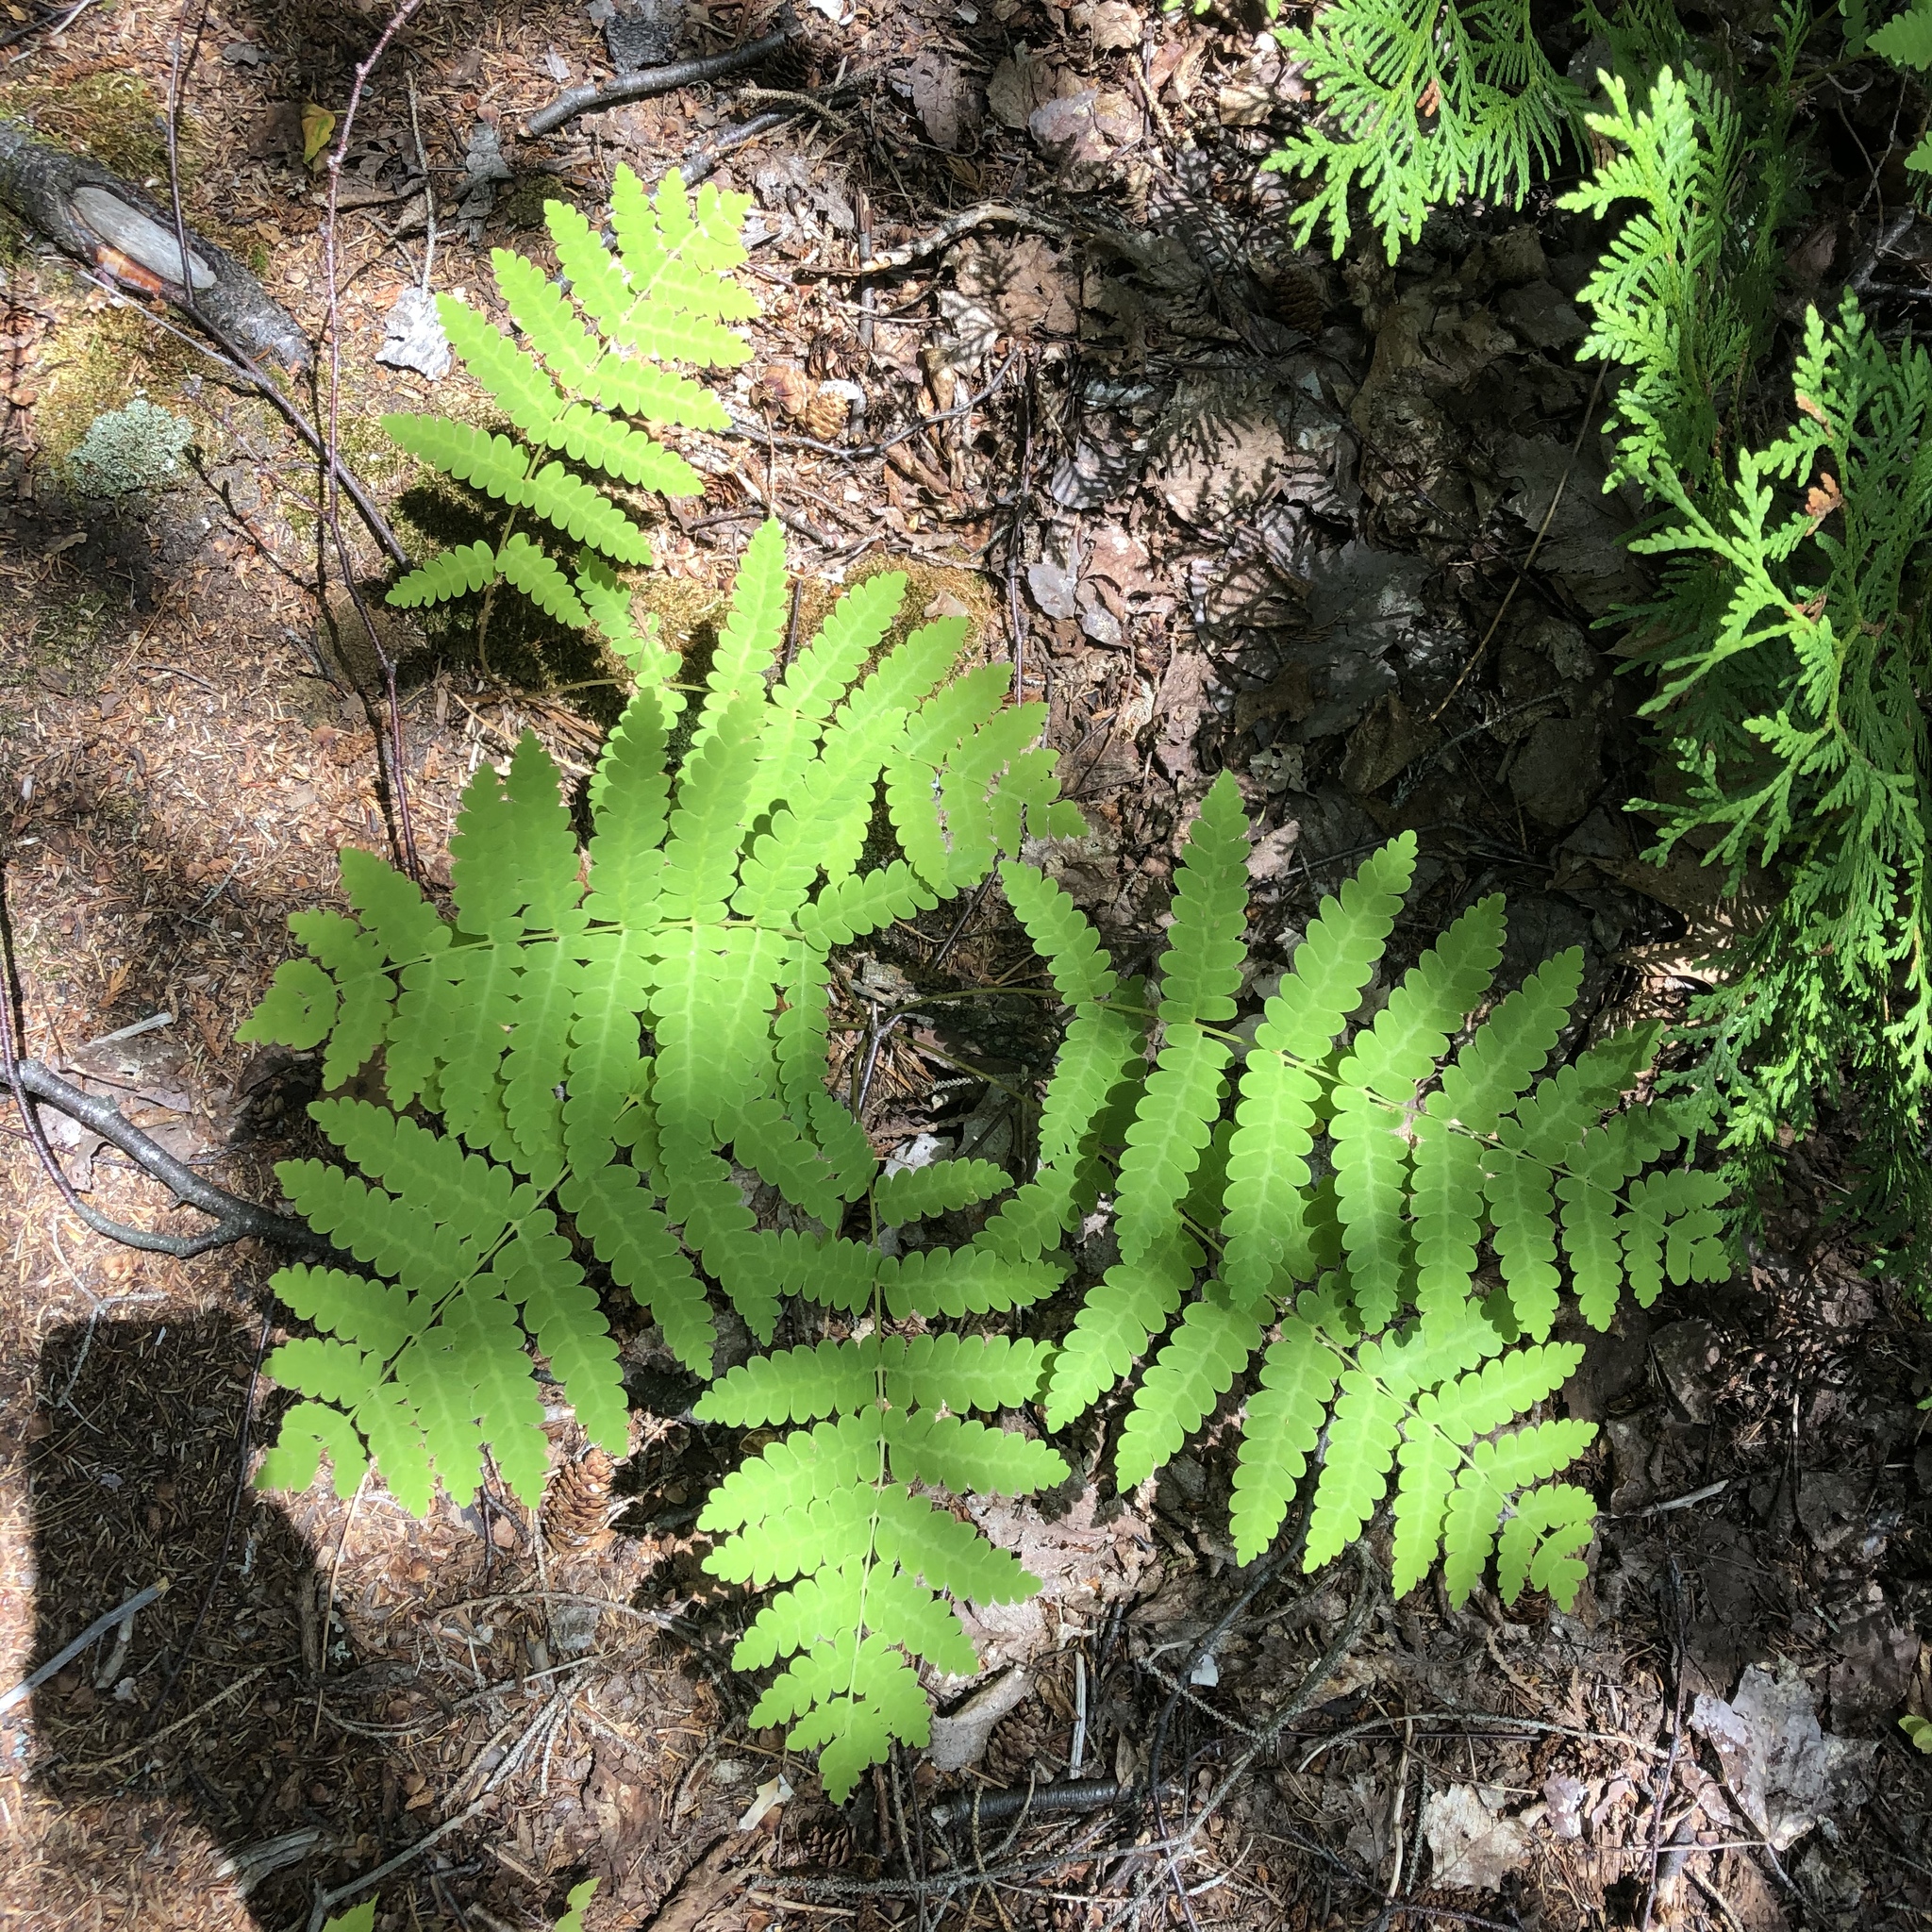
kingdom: Plantae
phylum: Tracheophyta
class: Polypodiopsida
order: Osmundales
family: Osmundaceae
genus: Claytosmunda
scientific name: Claytosmunda claytoniana
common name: Clayton's fern
